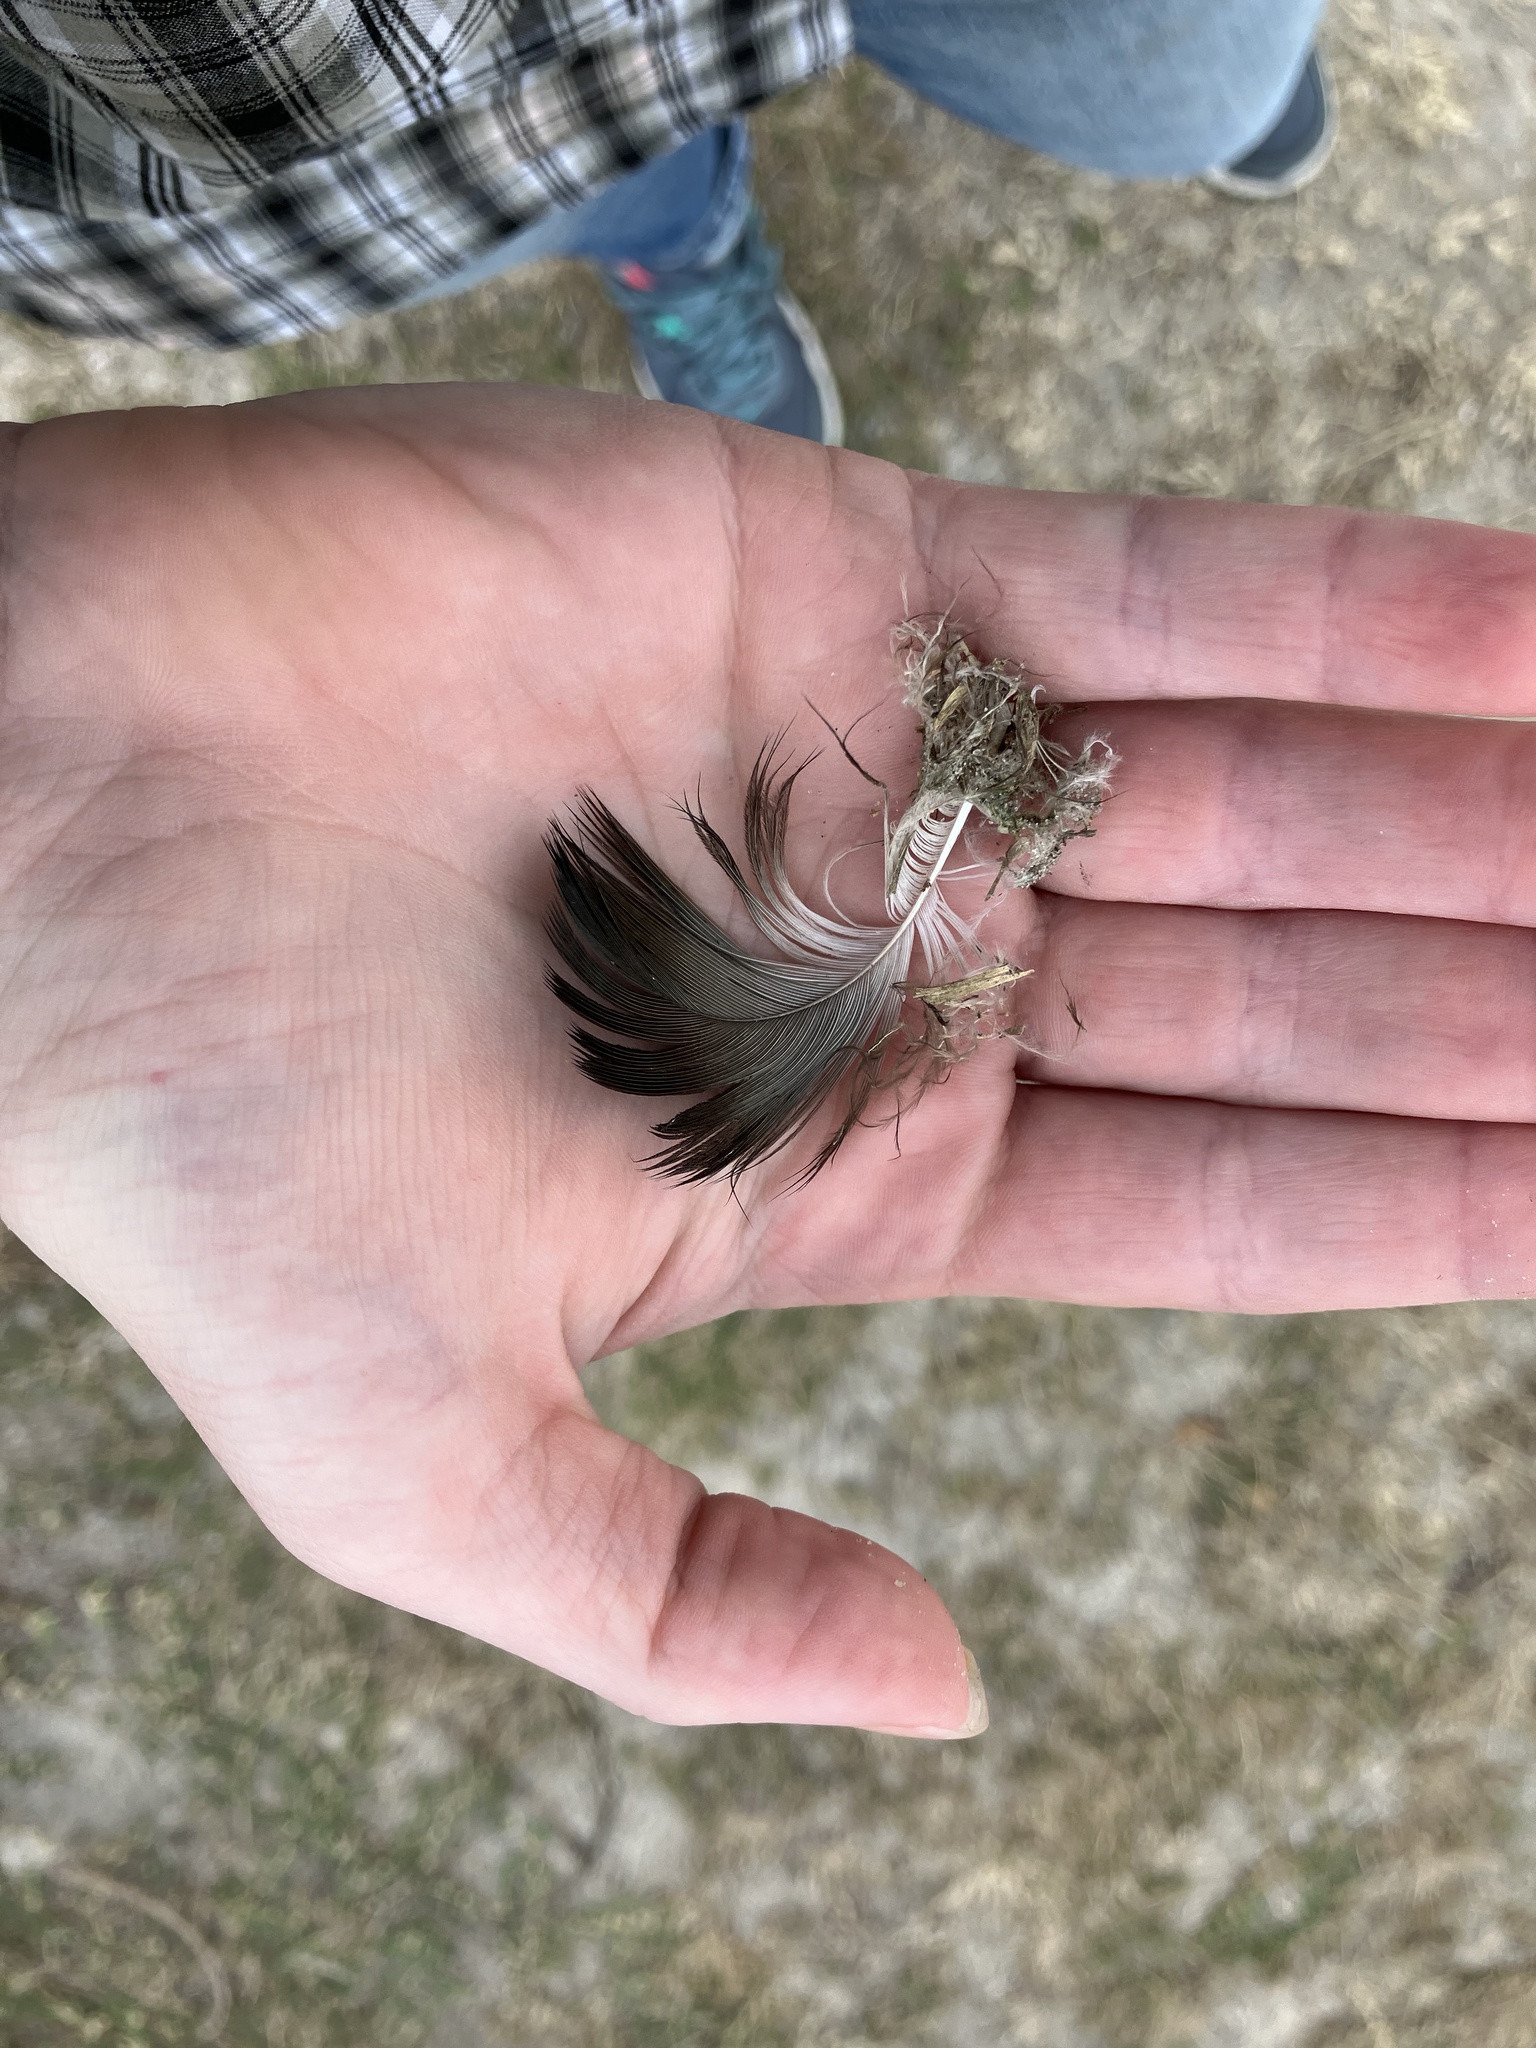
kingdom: Animalia
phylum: Chordata
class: Aves
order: Accipitriformes
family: Cathartidae
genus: Cathartes
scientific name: Cathartes aura
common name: Turkey vulture
